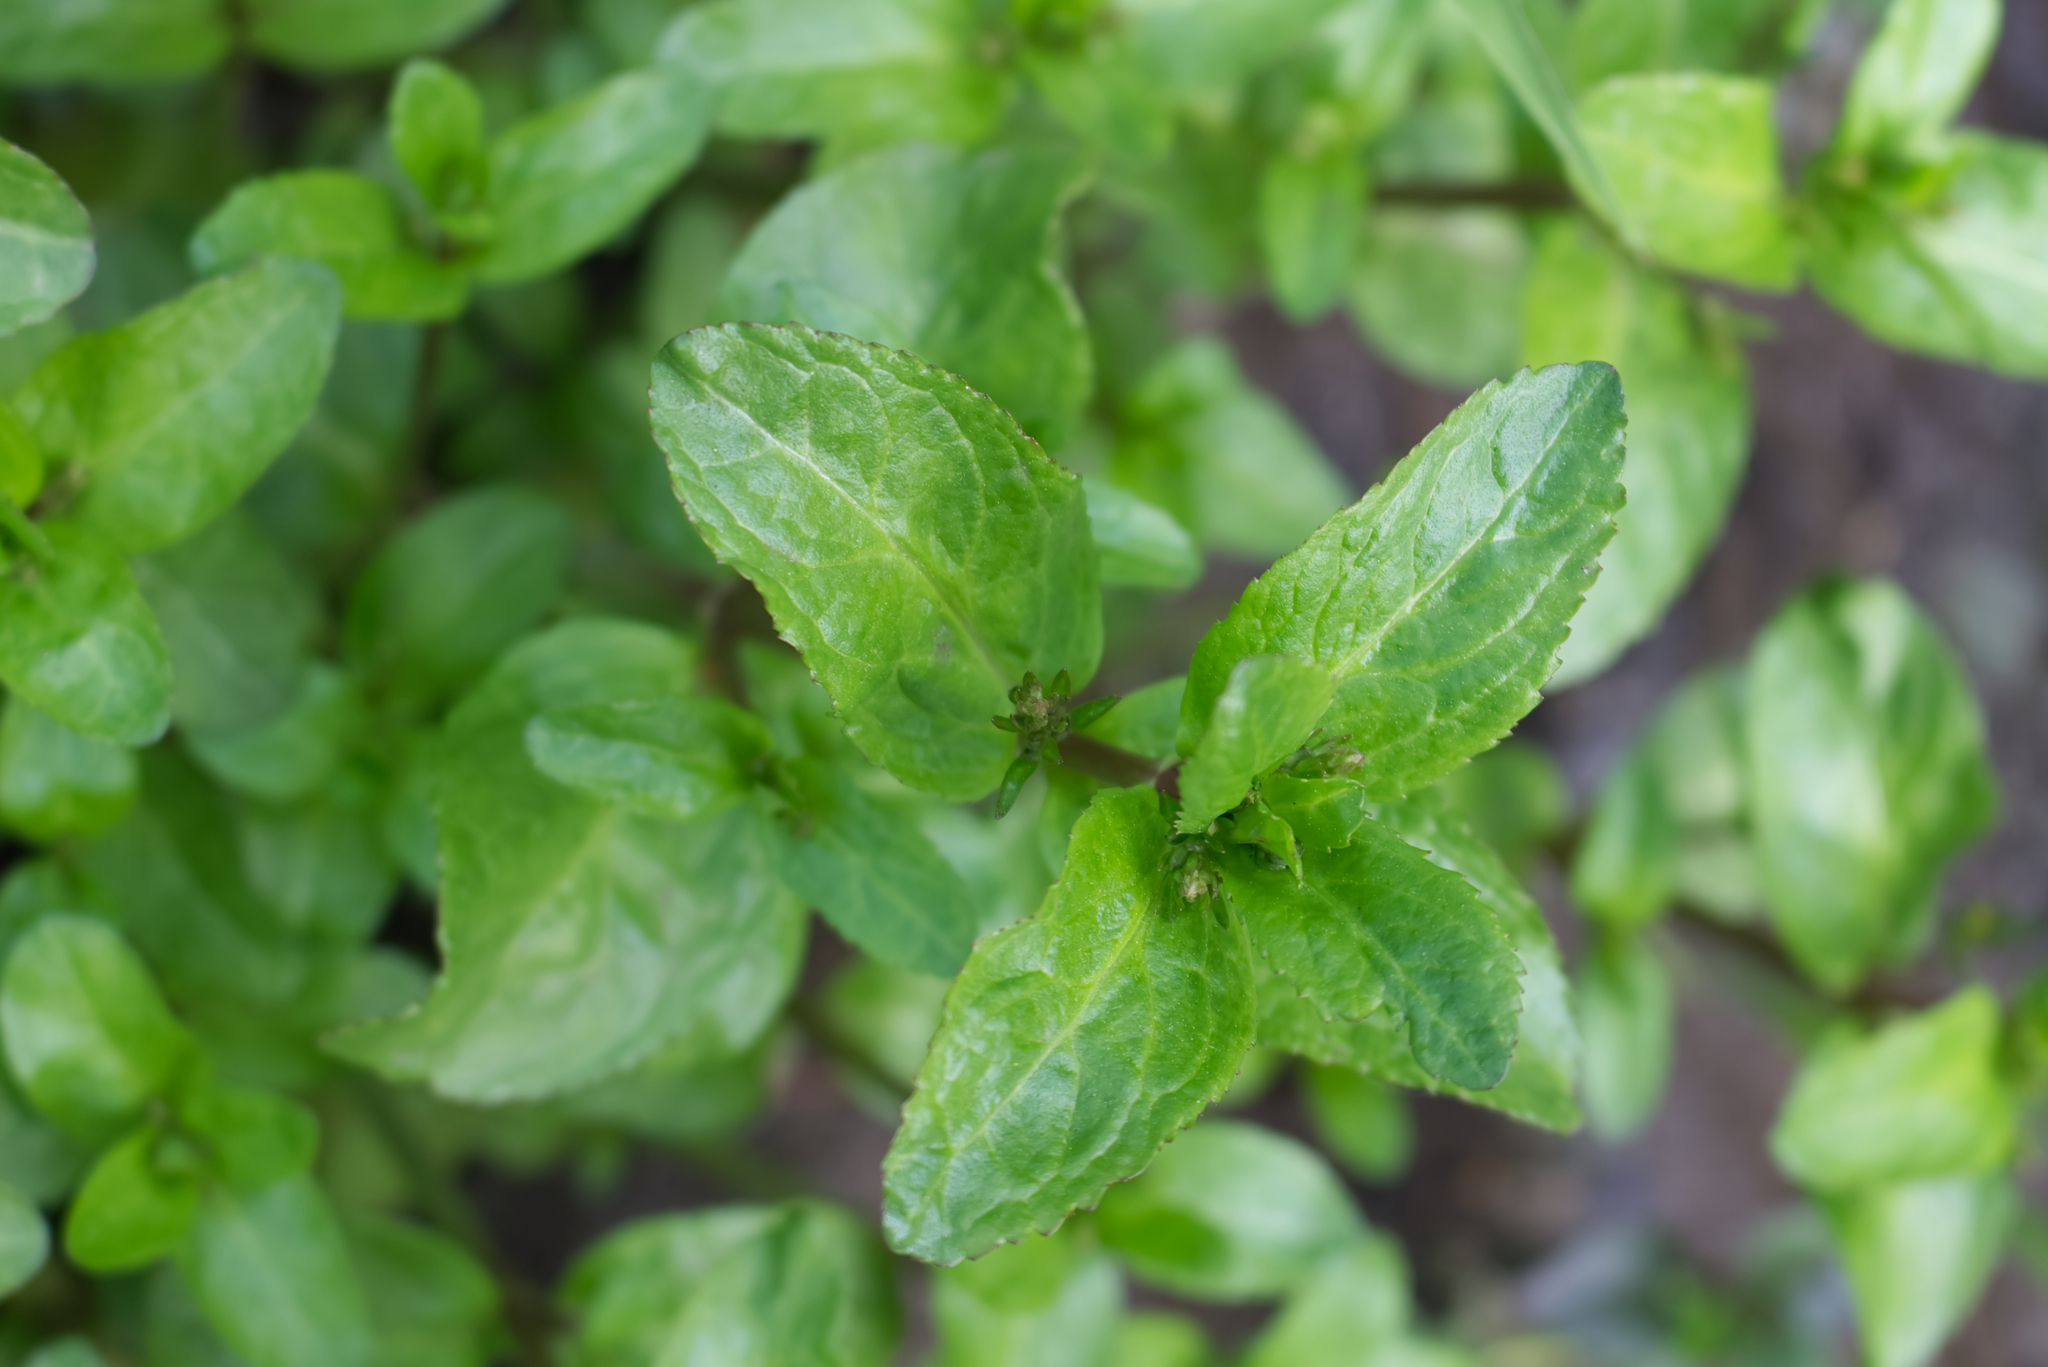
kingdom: Plantae
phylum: Tracheophyta
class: Magnoliopsida
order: Lamiales
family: Plantaginaceae
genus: Veronica
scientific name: Veronica beccabunga
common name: Brooklime
